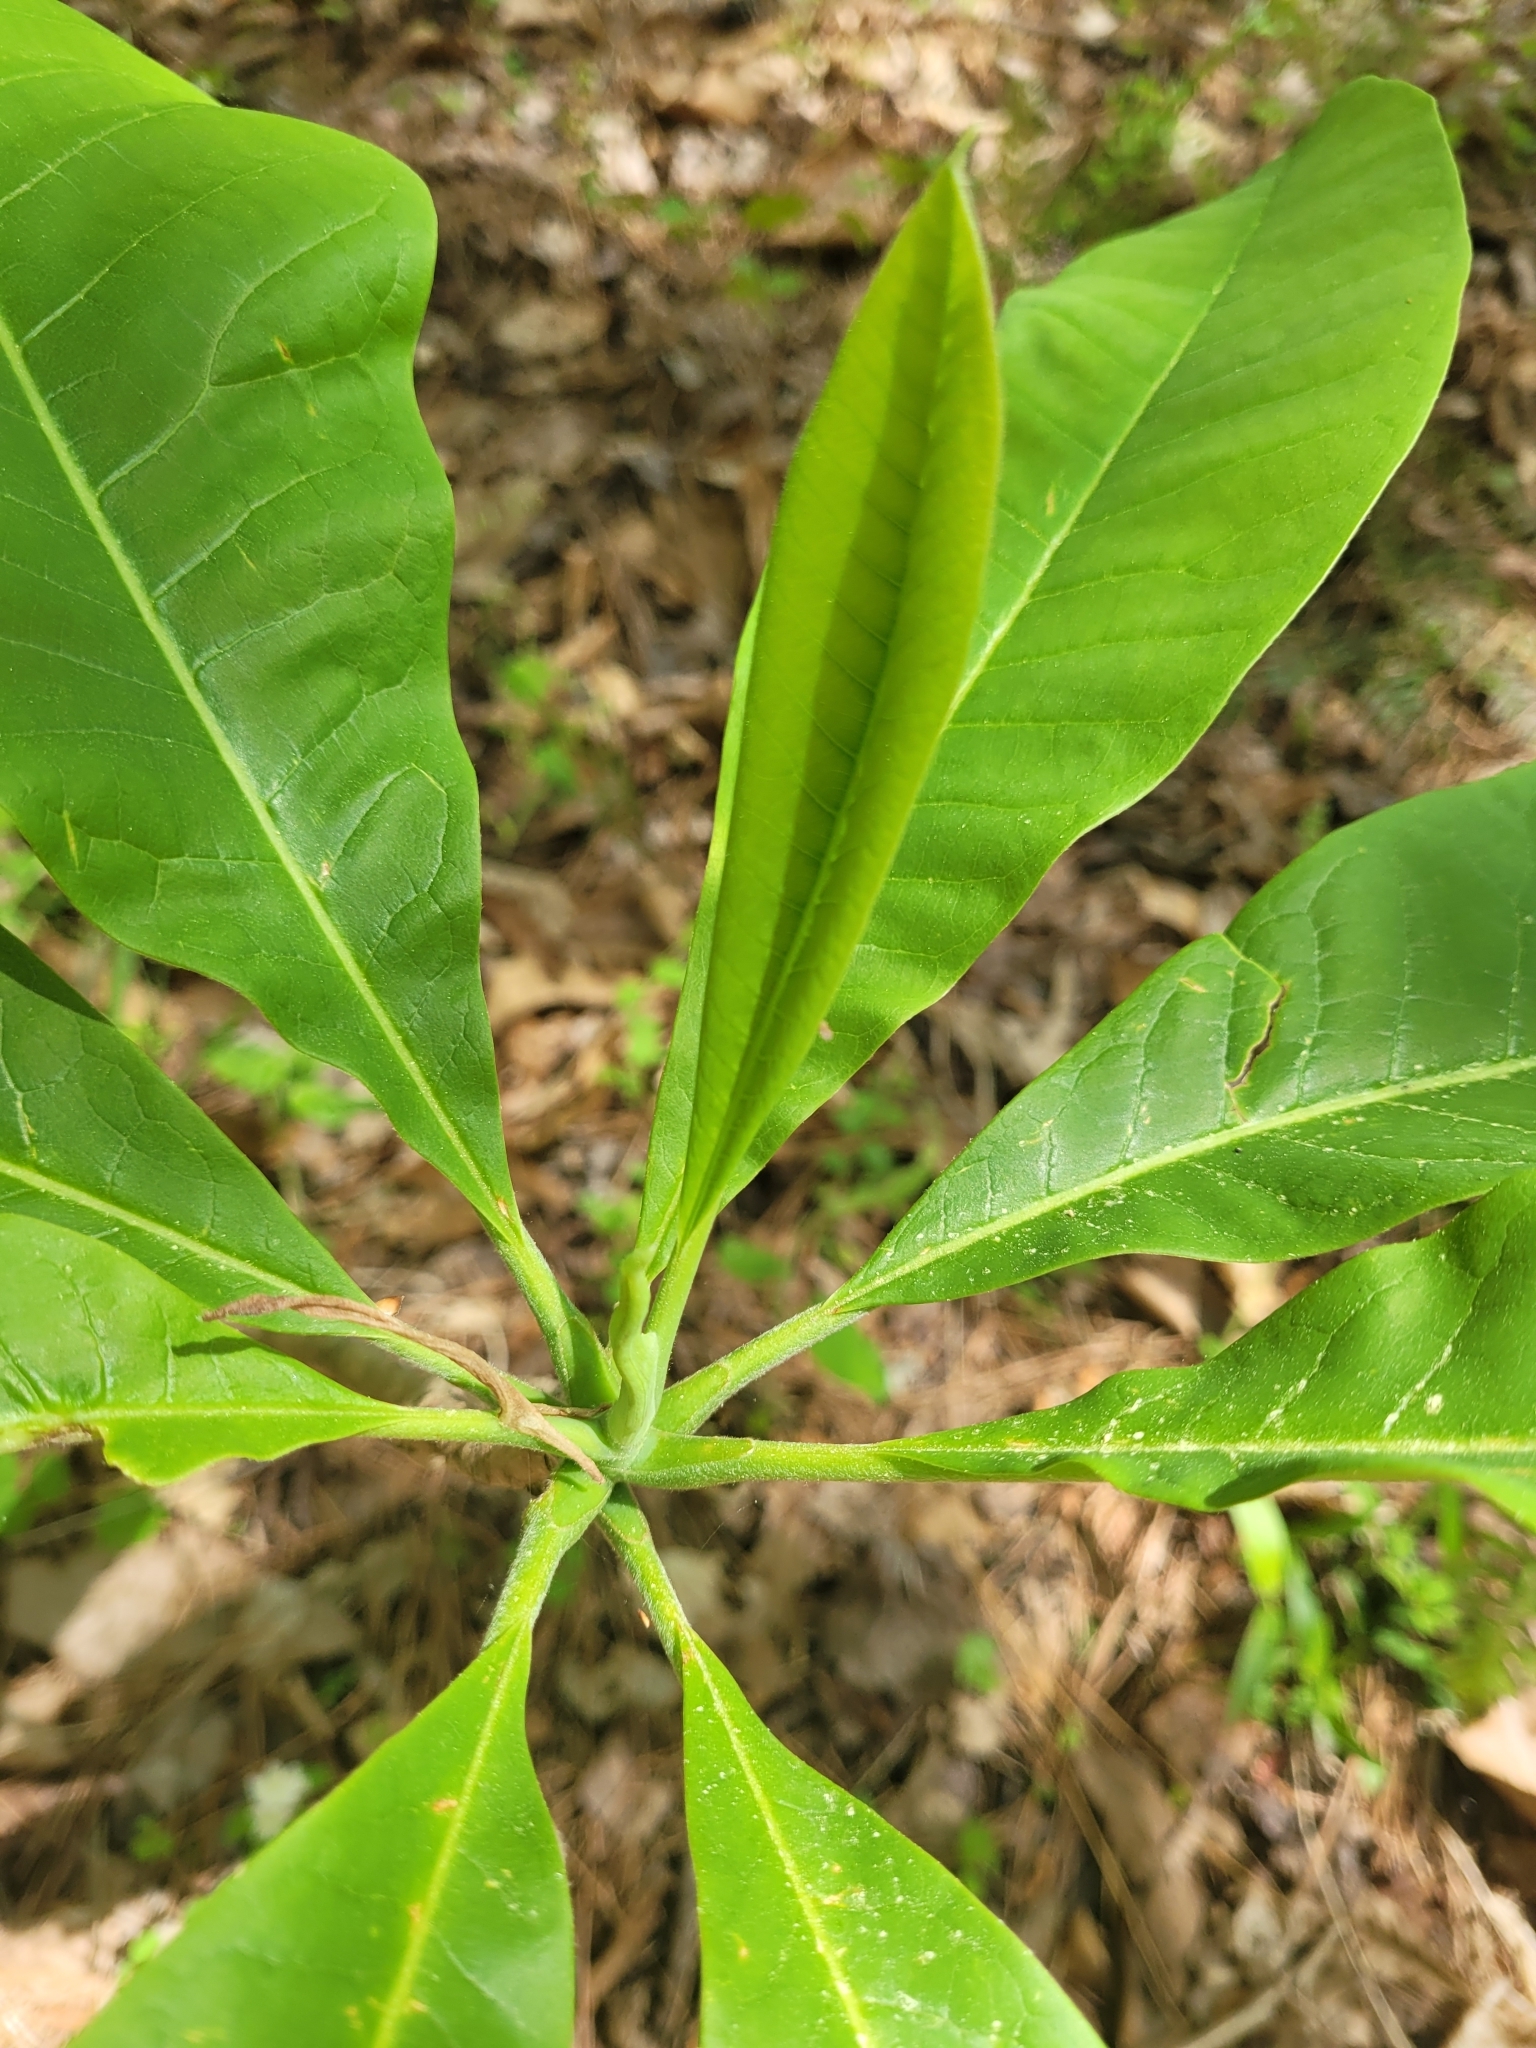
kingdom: Plantae
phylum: Tracheophyta
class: Magnoliopsida
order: Magnoliales
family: Magnoliaceae
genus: Magnolia
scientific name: Magnolia tripetala
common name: Umbrella magnolia
